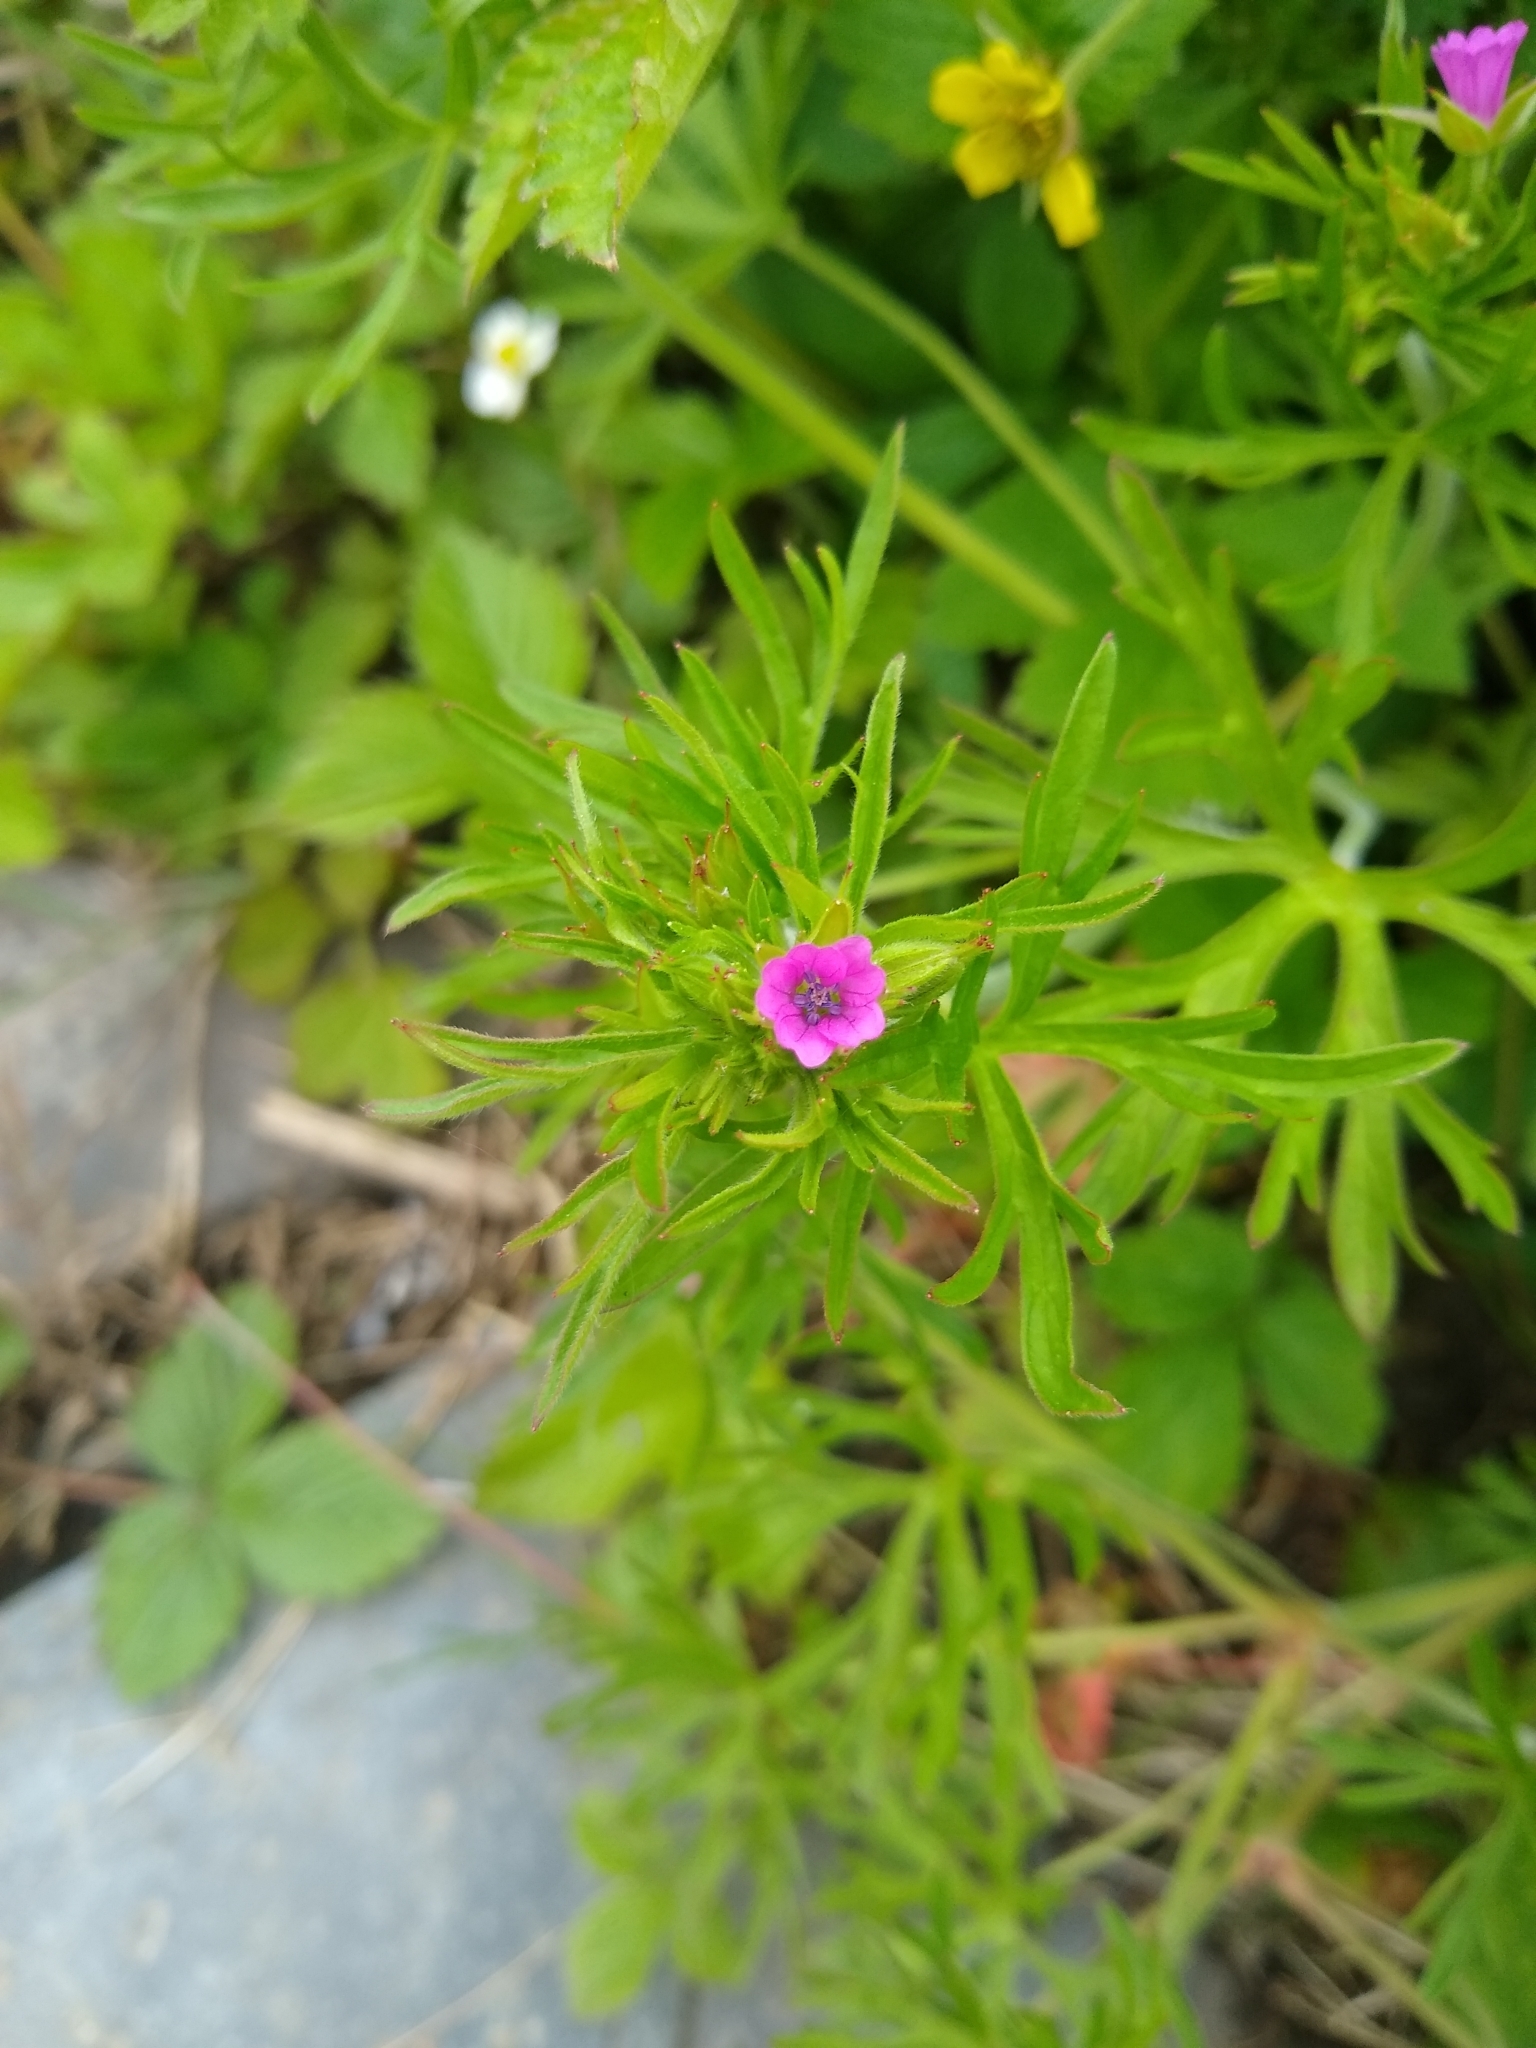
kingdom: Plantae
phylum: Tracheophyta
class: Magnoliopsida
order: Geraniales
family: Geraniaceae
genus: Geranium
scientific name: Geranium dissectum
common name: Cut-leaved crane's-bill
